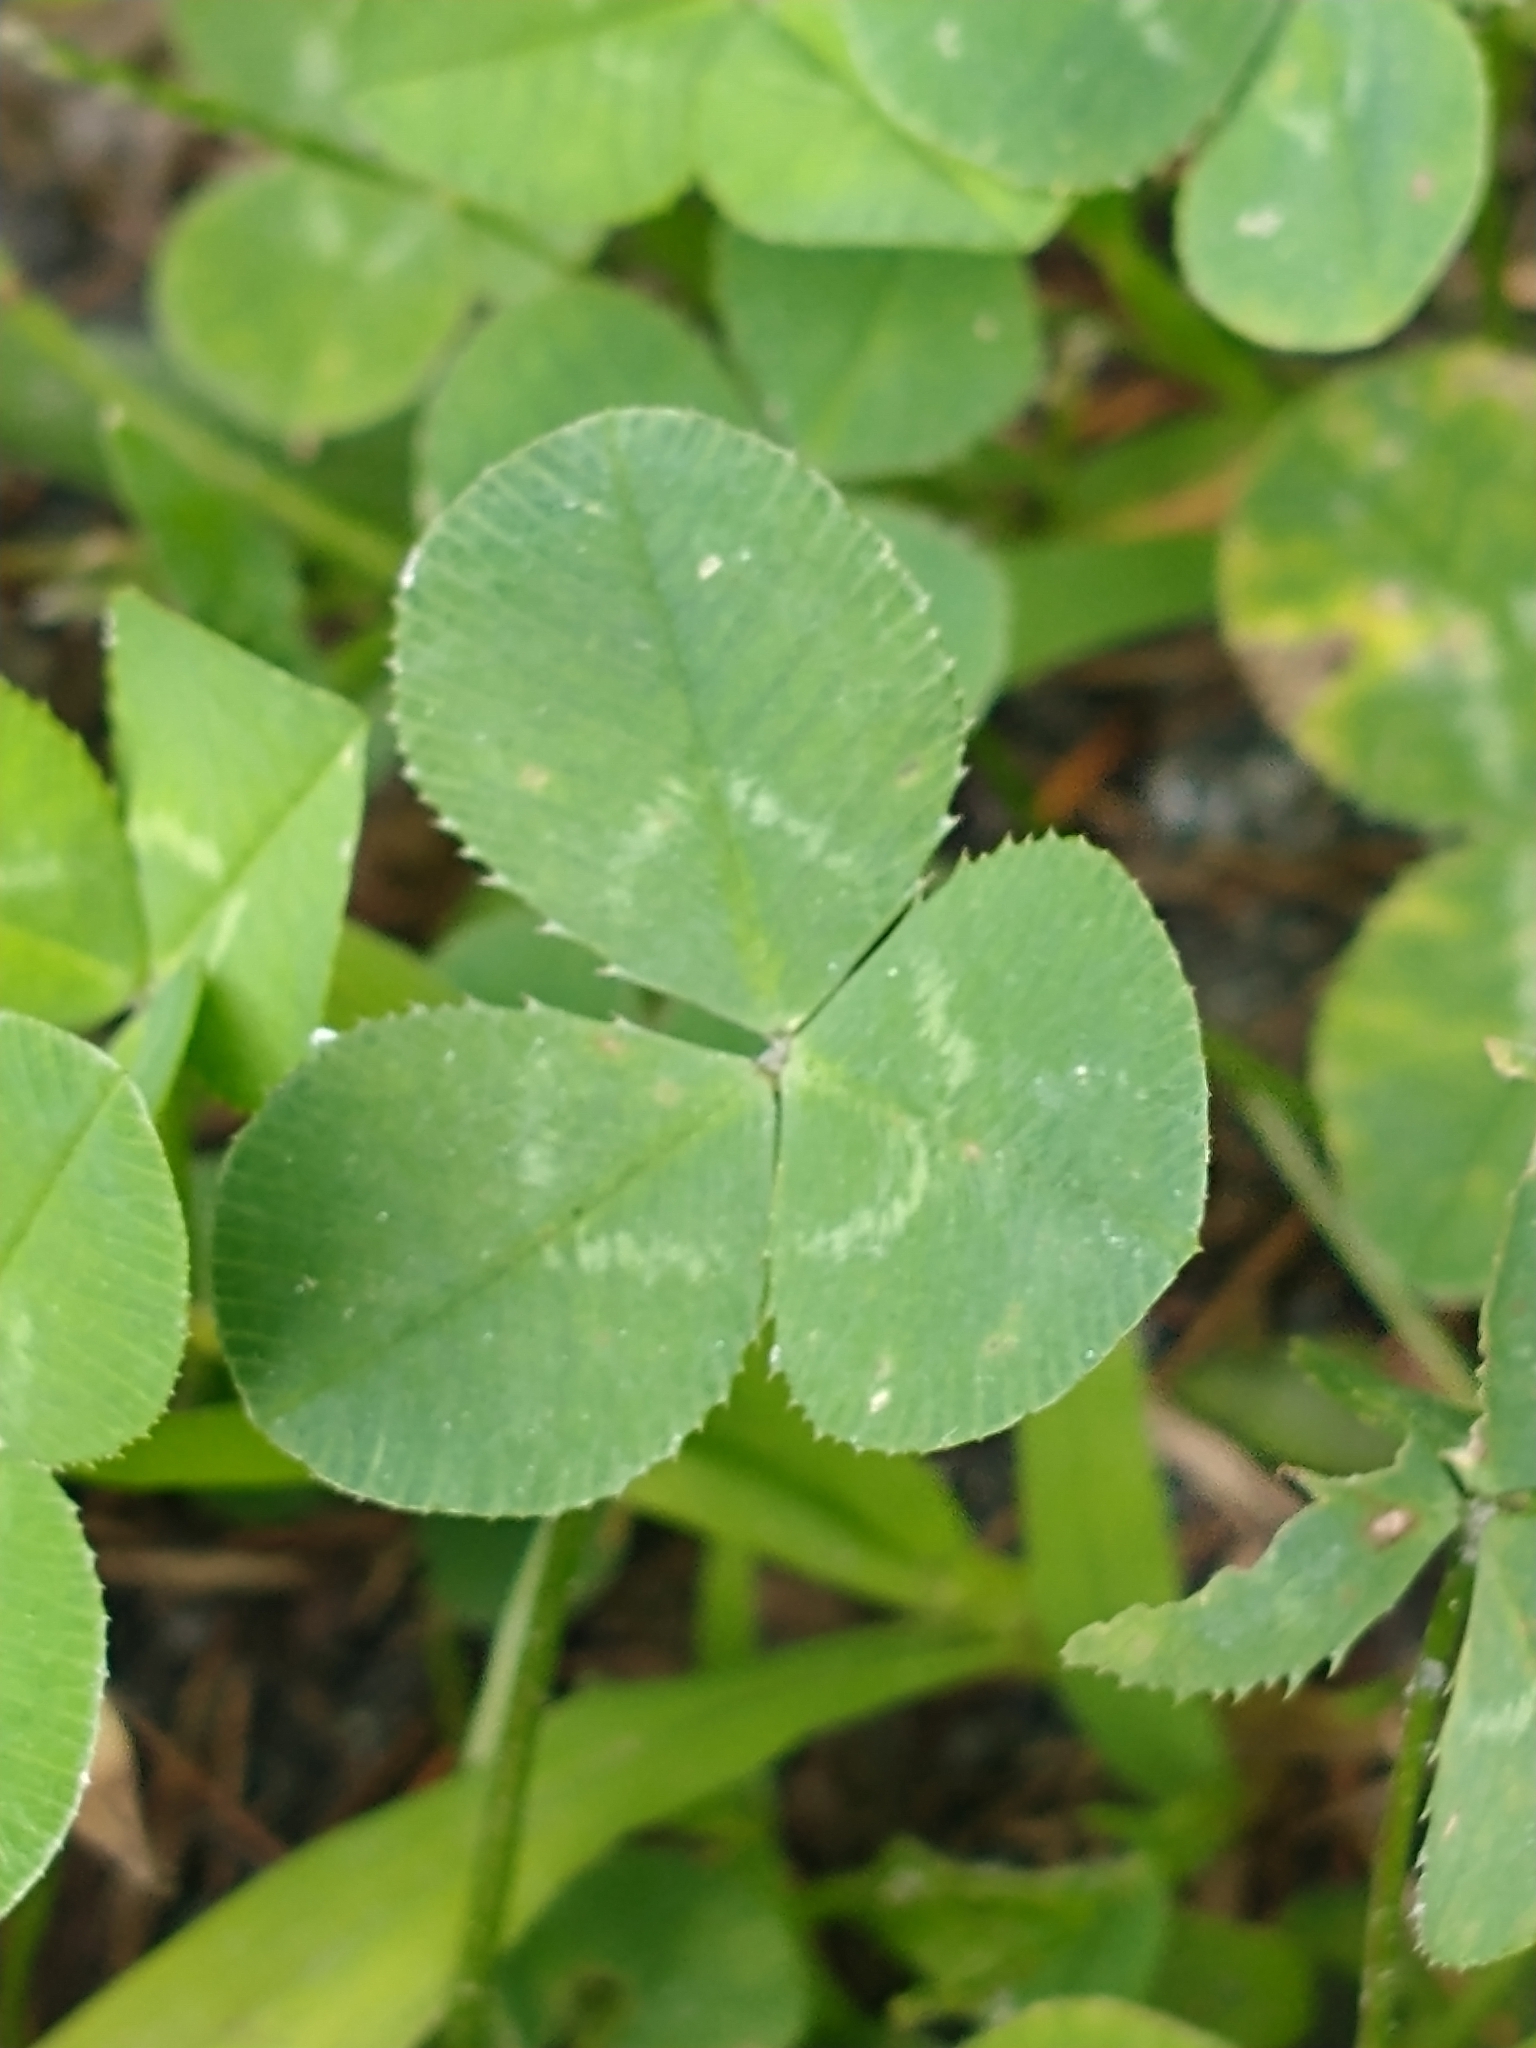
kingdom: Plantae
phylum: Tracheophyta
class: Magnoliopsida
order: Fabales
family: Fabaceae
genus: Trifolium
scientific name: Trifolium repens
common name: White clover
